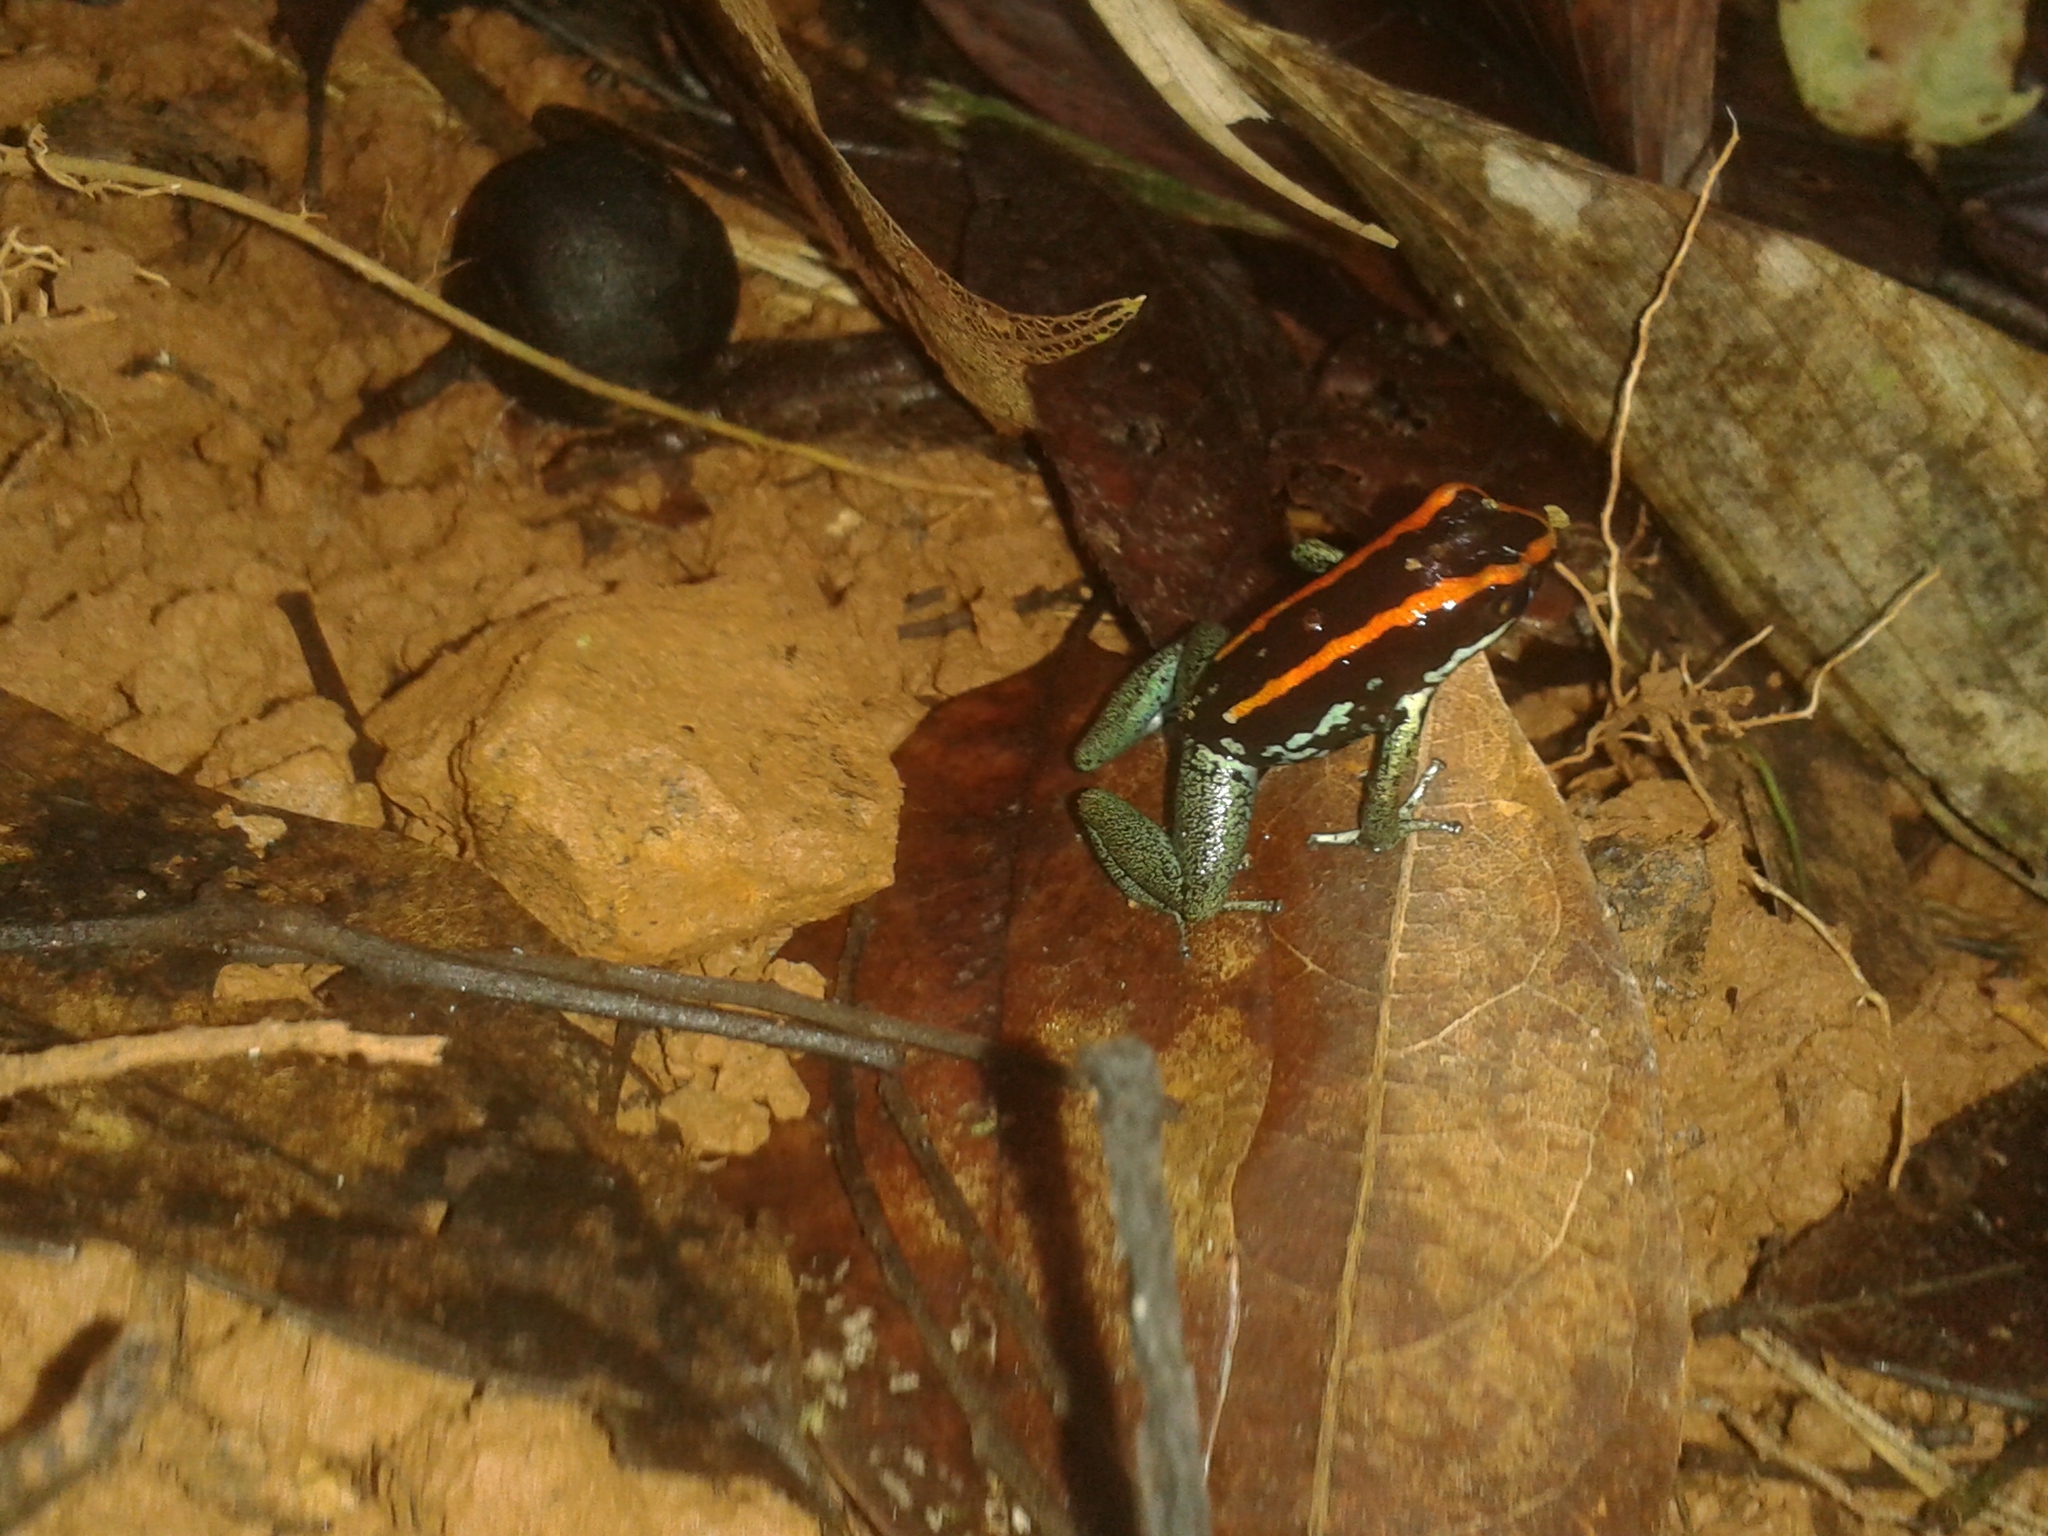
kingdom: Animalia
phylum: Chordata
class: Amphibia
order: Anura
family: Dendrobatidae
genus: Phyllobates
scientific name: Phyllobates vittatus
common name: Golfodulcean poison frog
